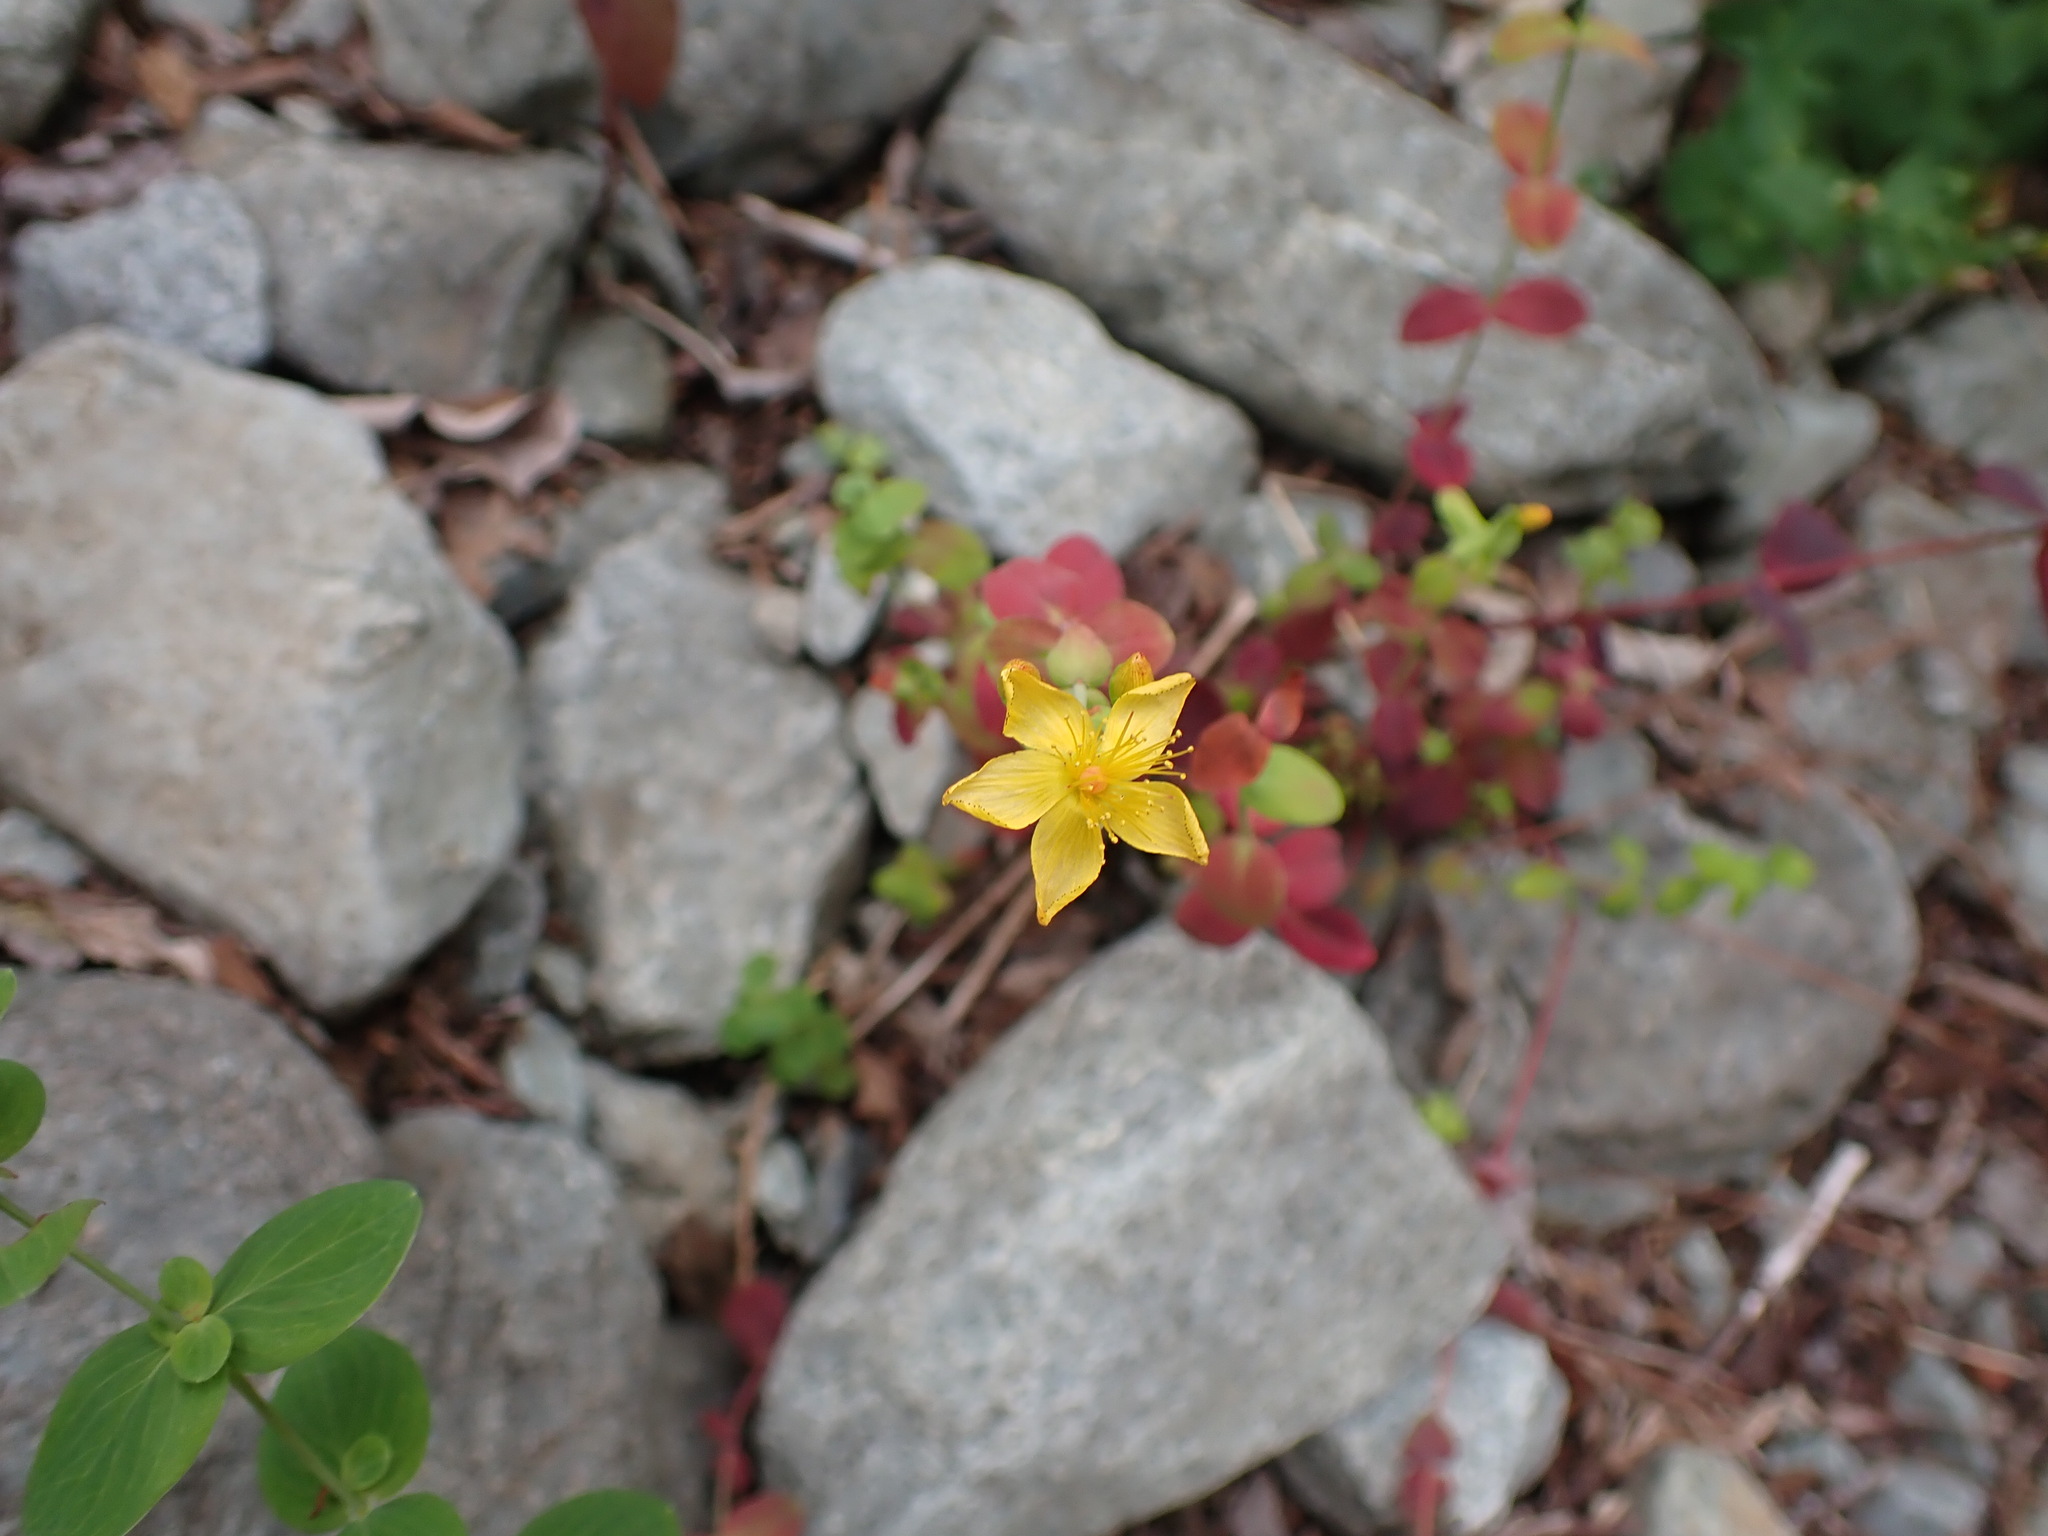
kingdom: Plantae
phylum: Tracheophyta
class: Magnoliopsida
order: Malpighiales
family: Hypericaceae
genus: Hypericum
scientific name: Hypericum scouleri
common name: Scouler's st. john's-wort
